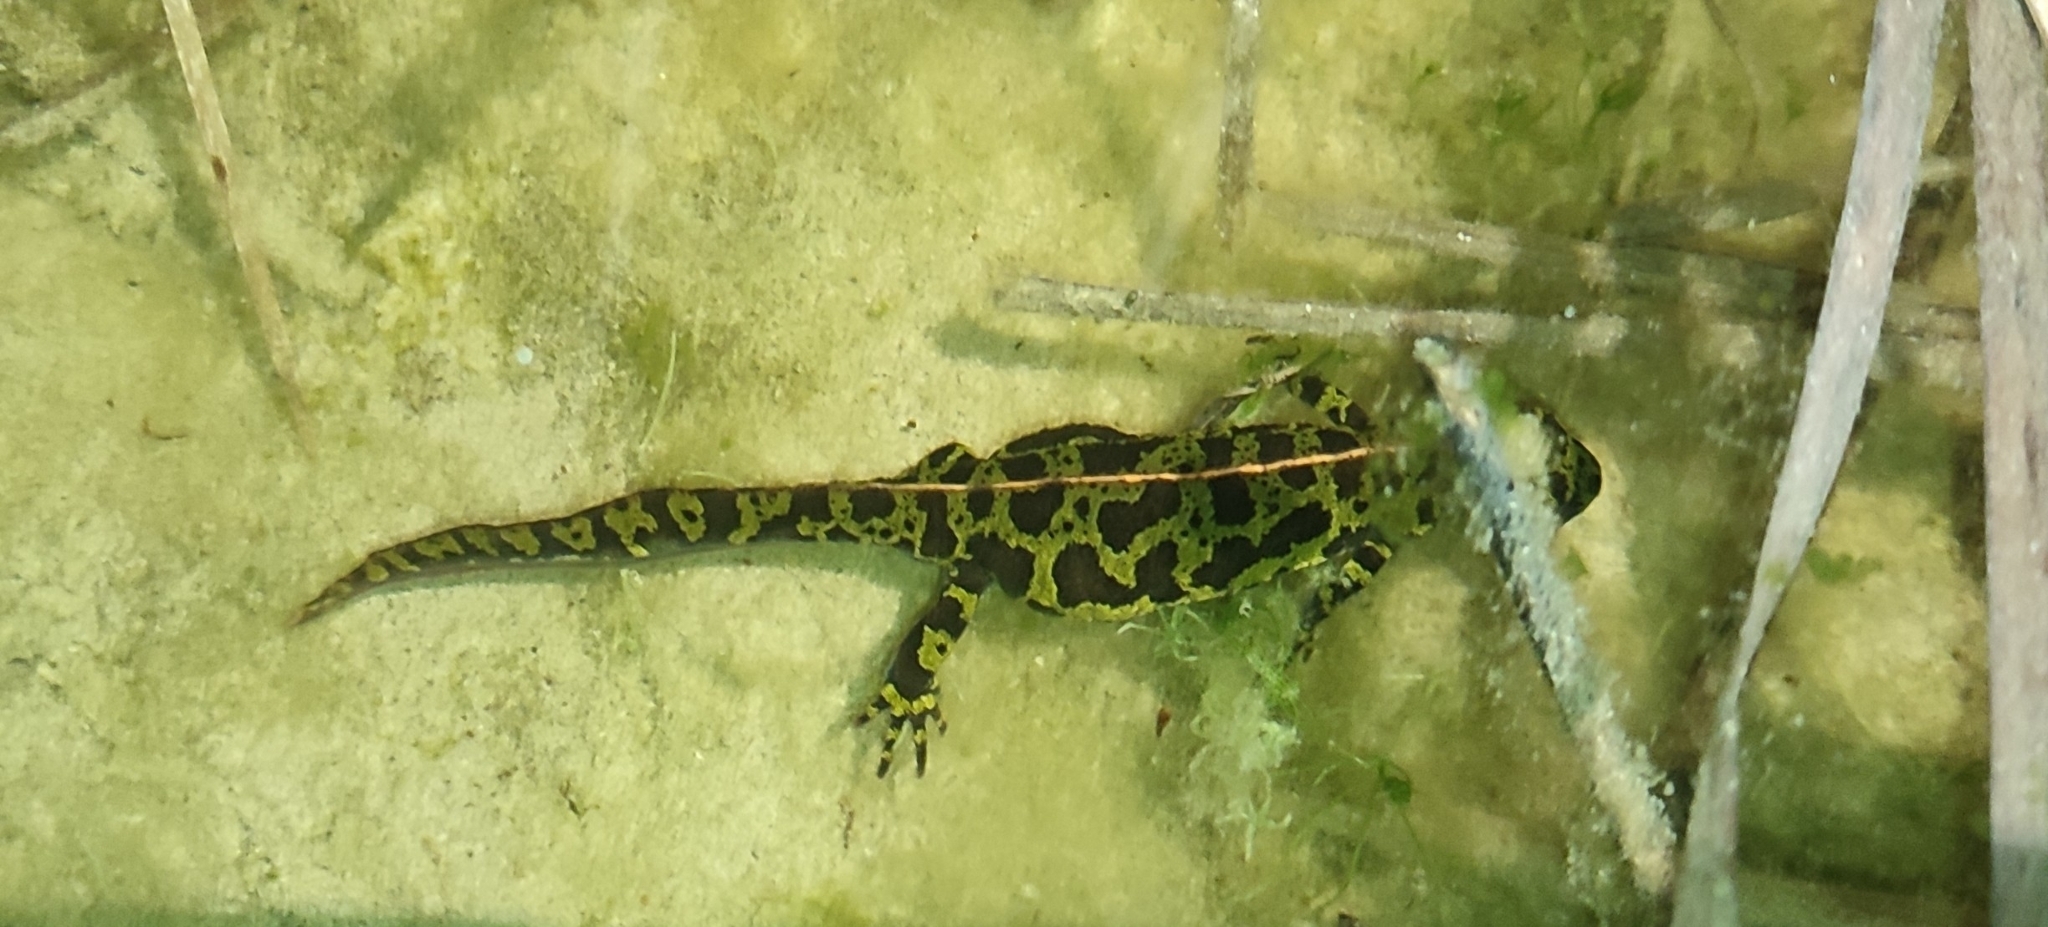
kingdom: Animalia
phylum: Chordata
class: Amphibia
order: Caudata
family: Salamandridae
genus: Triturus
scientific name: Triturus marmoratus
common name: Marbled newt
